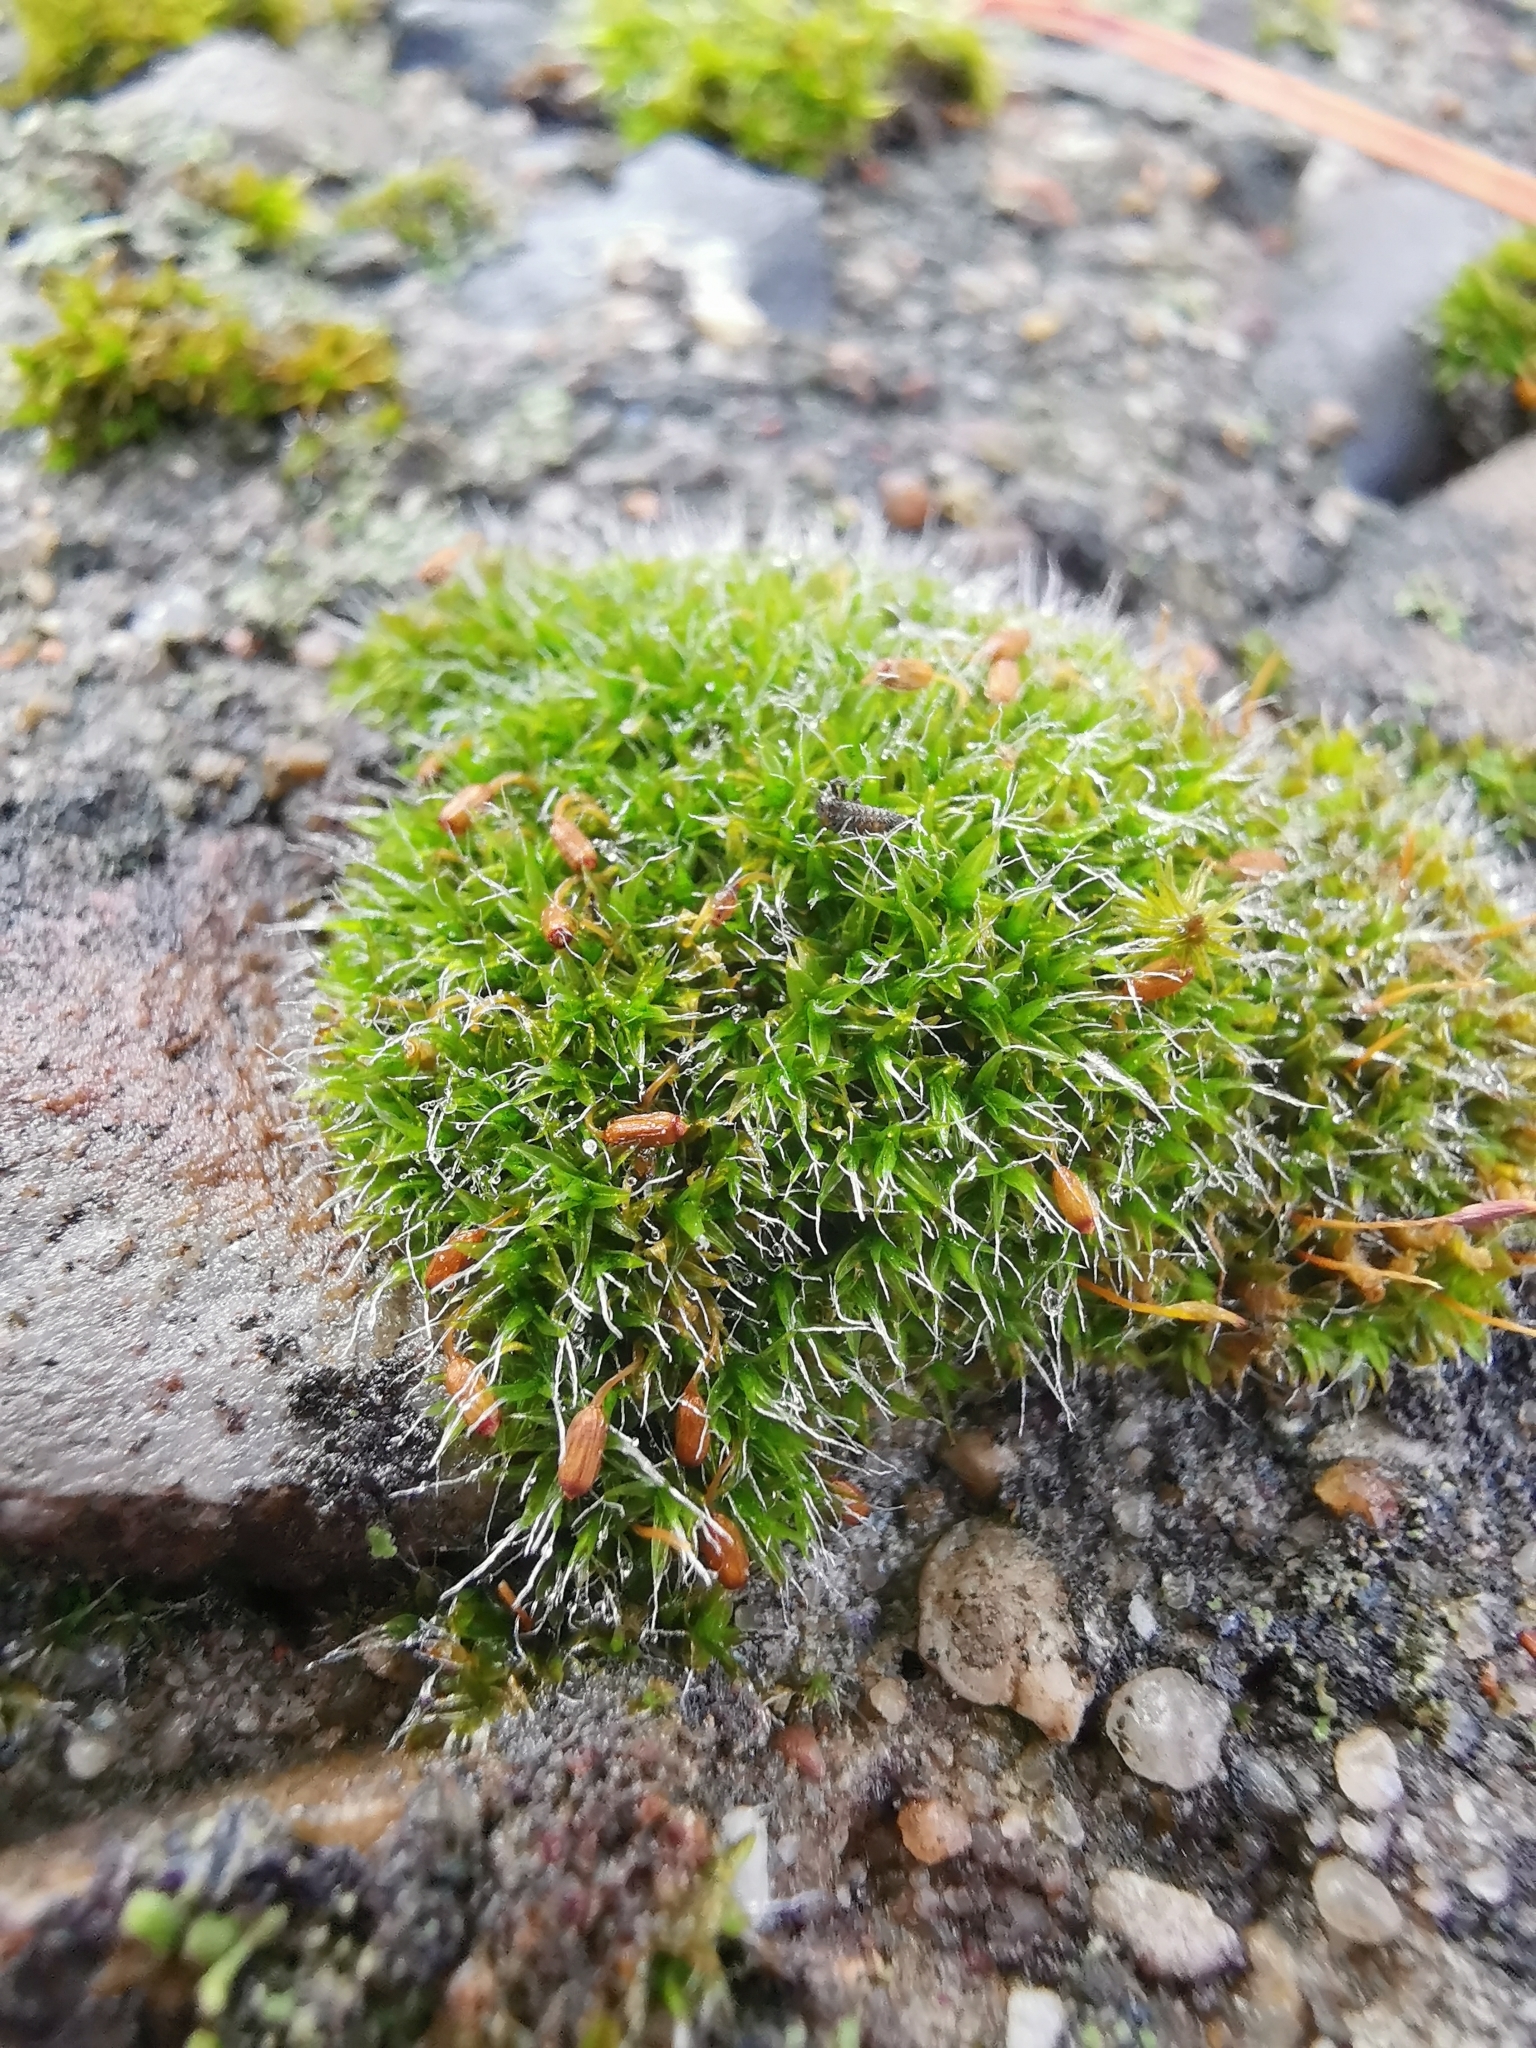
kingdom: Plantae
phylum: Bryophyta
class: Bryopsida
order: Grimmiales
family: Grimmiaceae
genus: Grimmia
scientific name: Grimmia pulvinata
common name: Grey-cushioned grimmia
